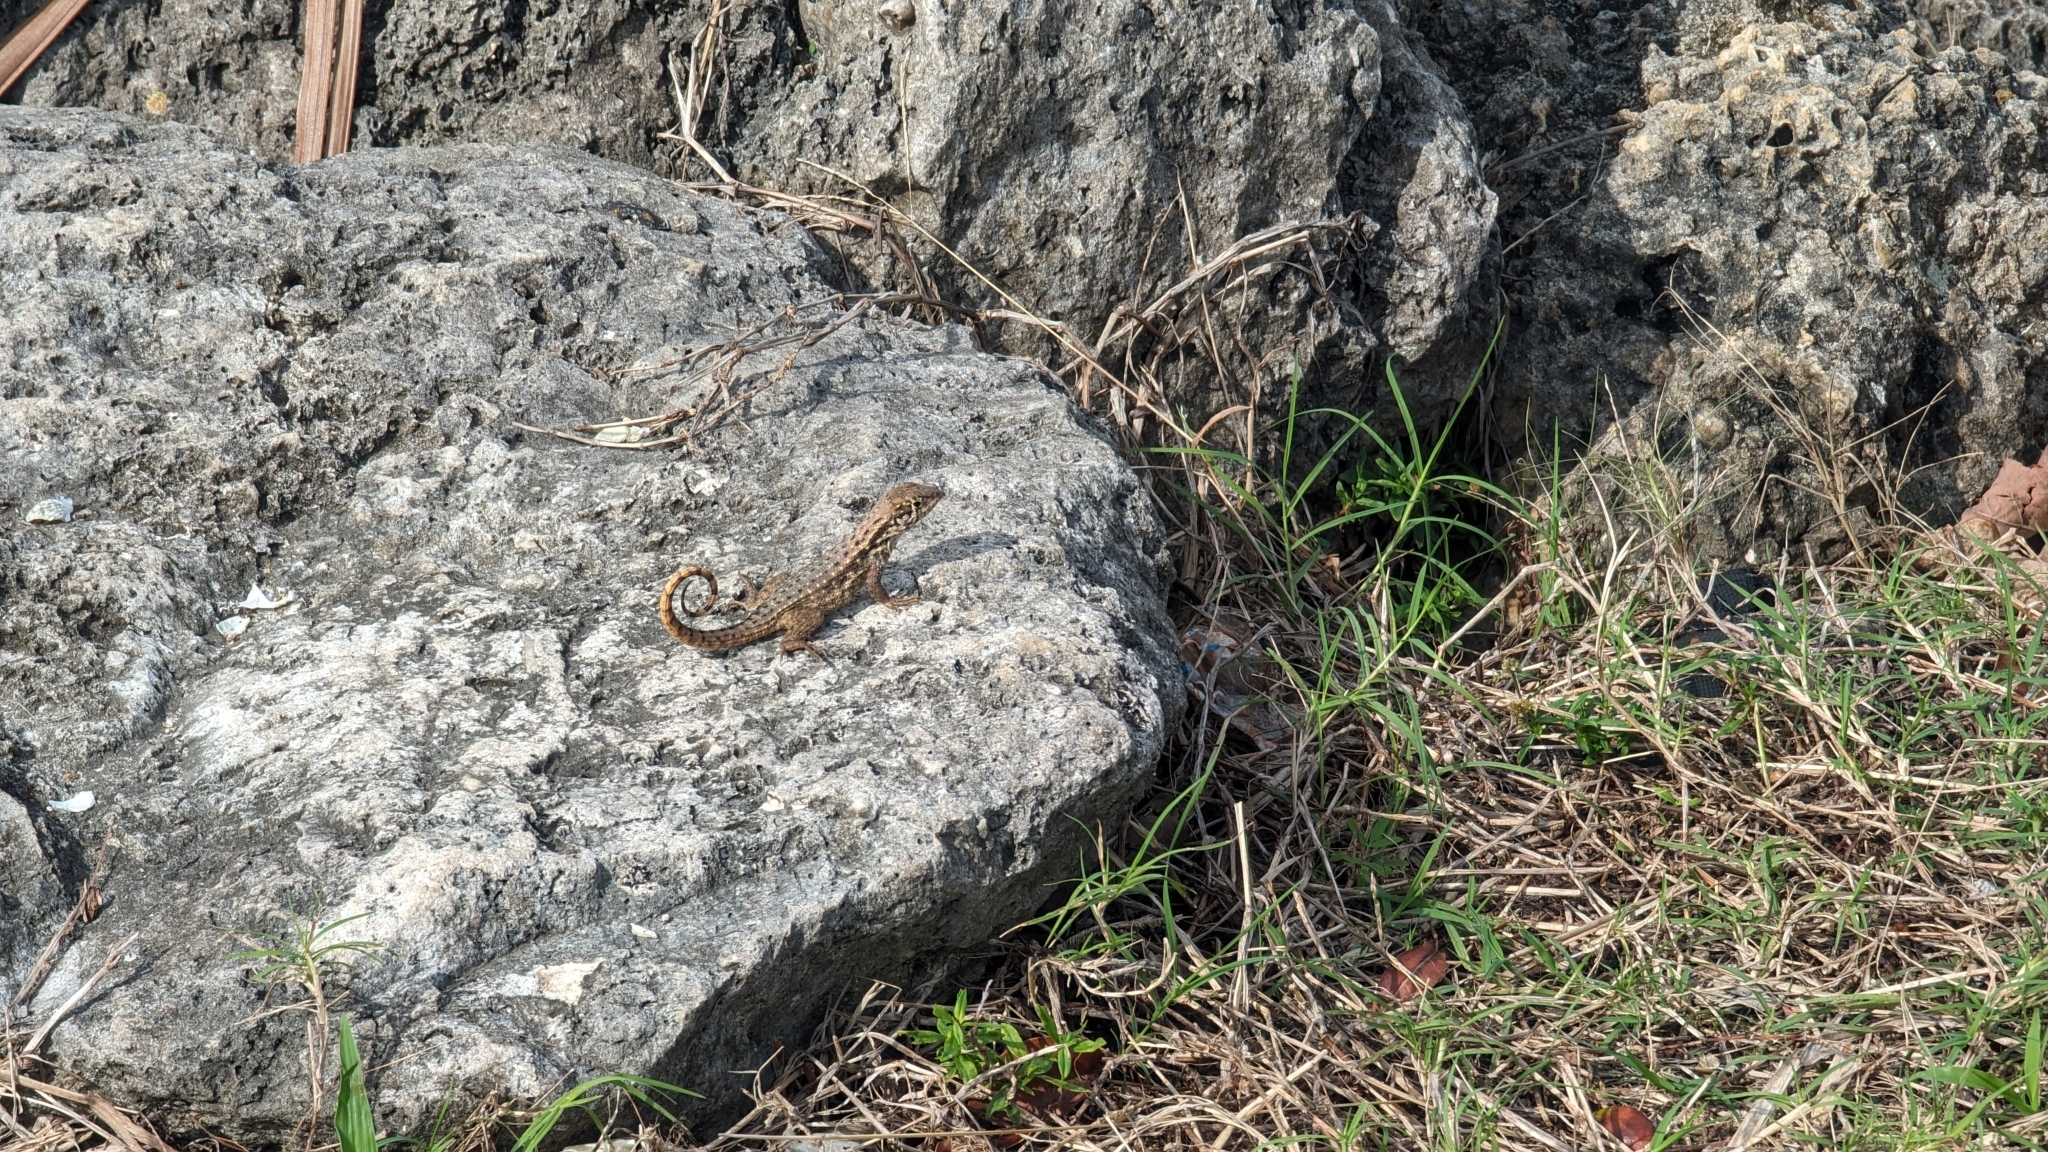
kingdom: Animalia
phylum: Chordata
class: Squamata
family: Leiocephalidae
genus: Leiocephalus
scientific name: Leiocephalus carinatus
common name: Northern curly-tailed lizard
